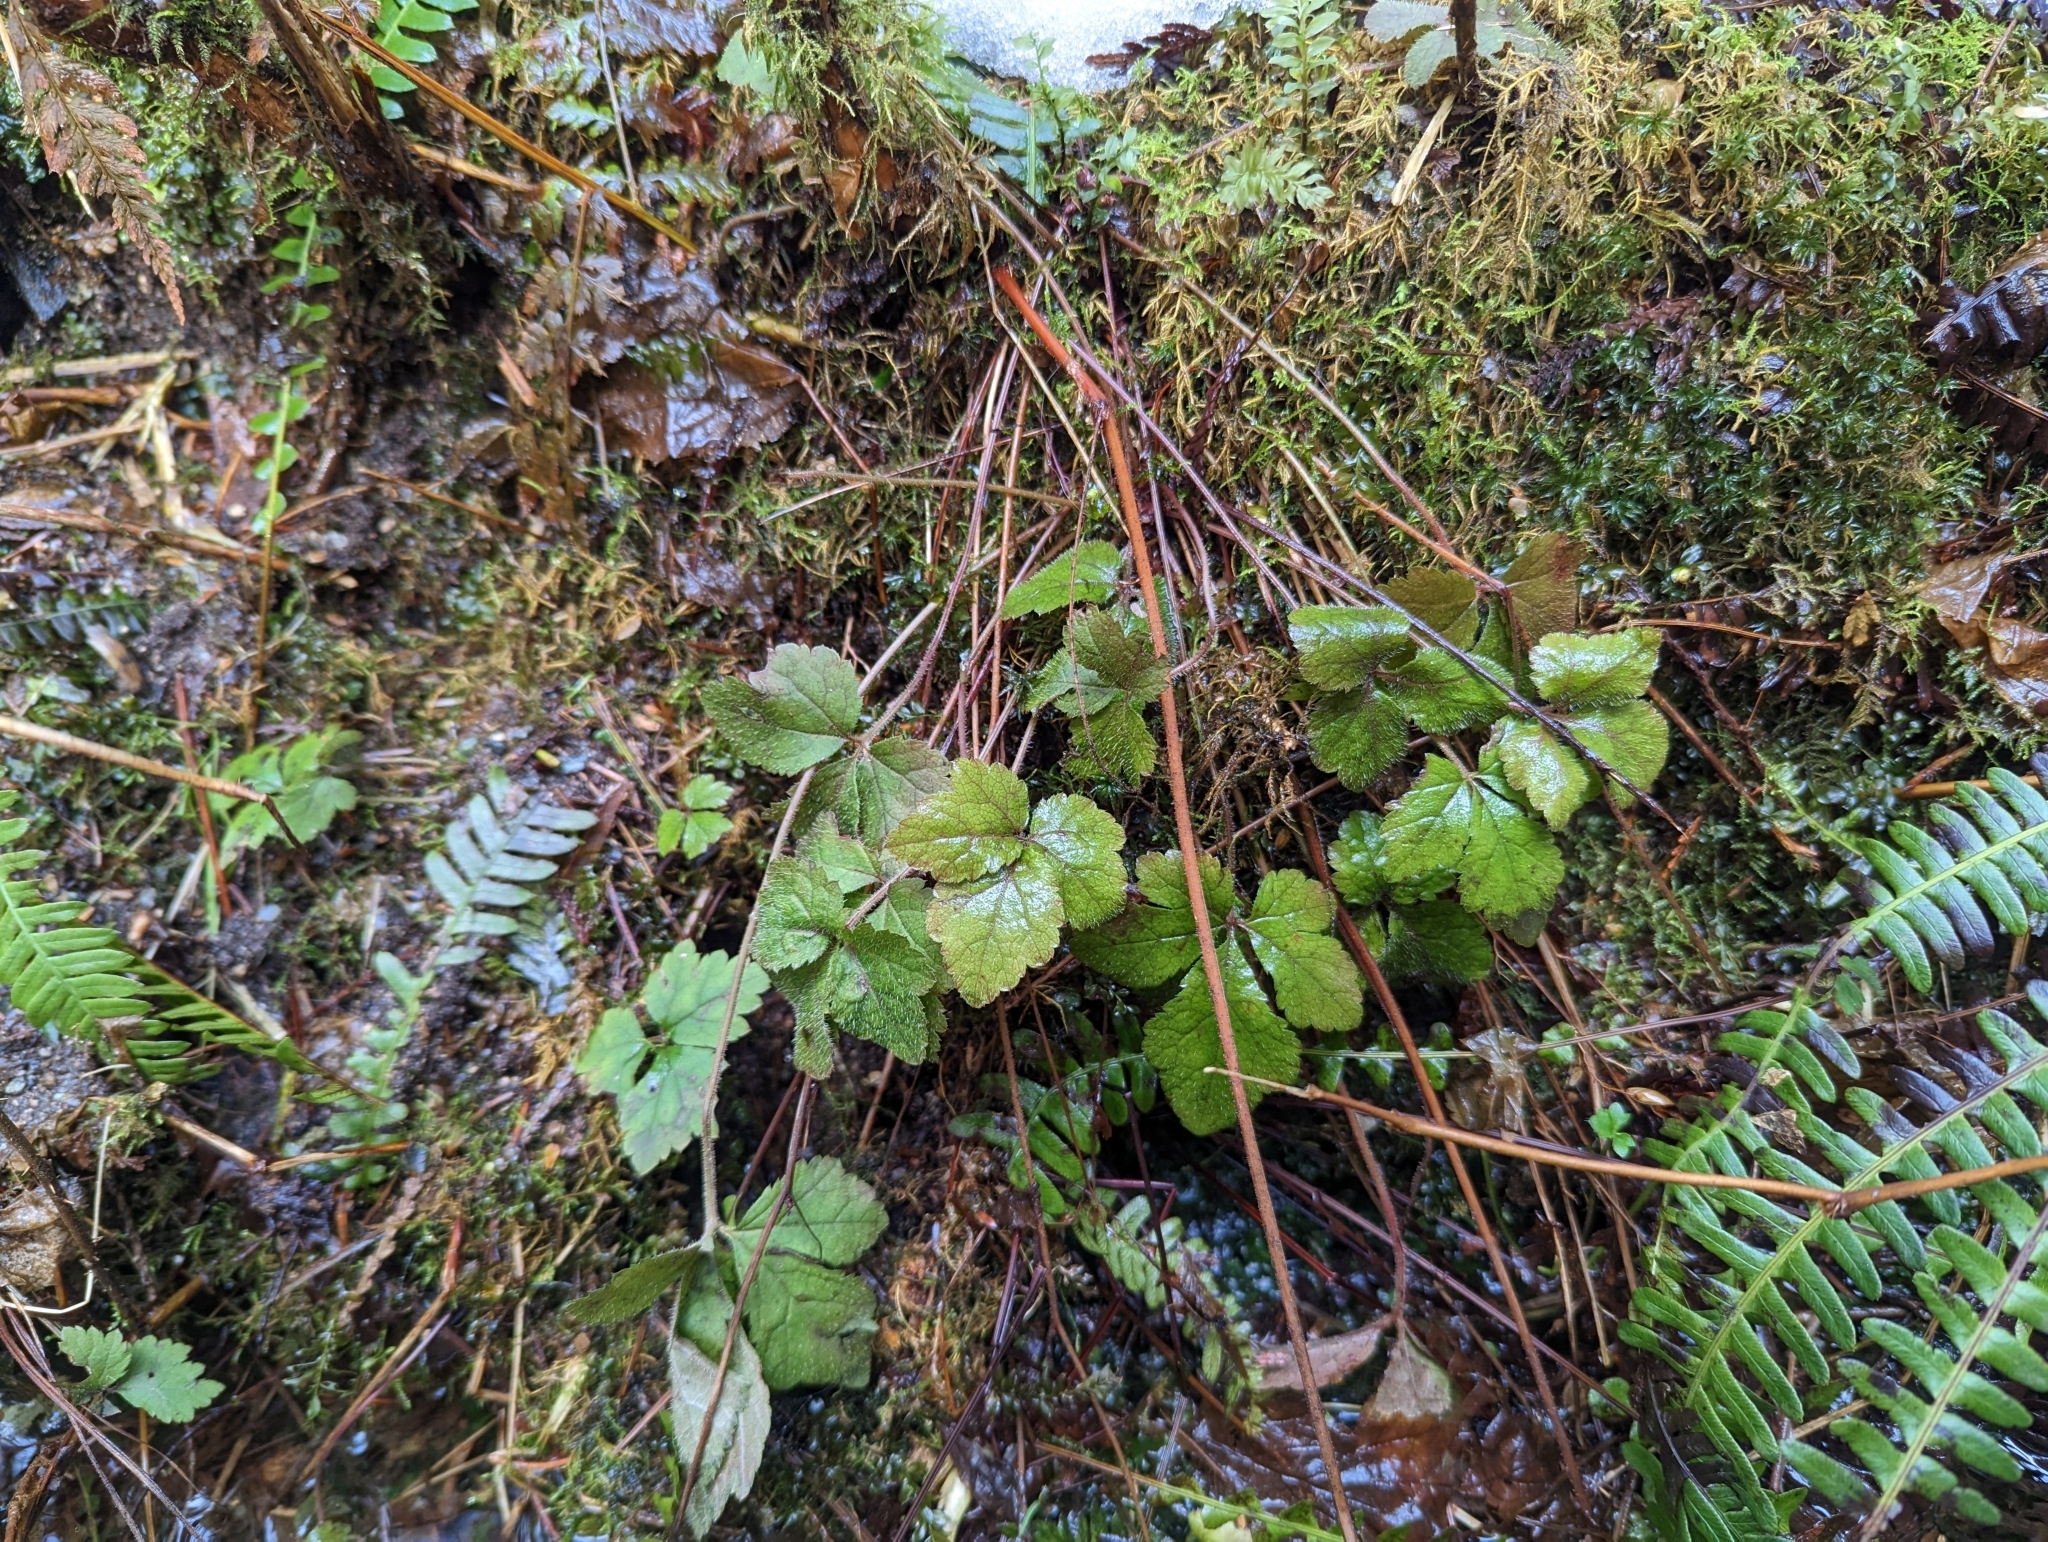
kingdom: Plantae
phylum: Tracheophyta
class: Magnoliopsida
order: Saxifragales
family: Saxifragaceae
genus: Tiarella
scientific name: Tiarella trifoliata
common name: Sugar-scoop
